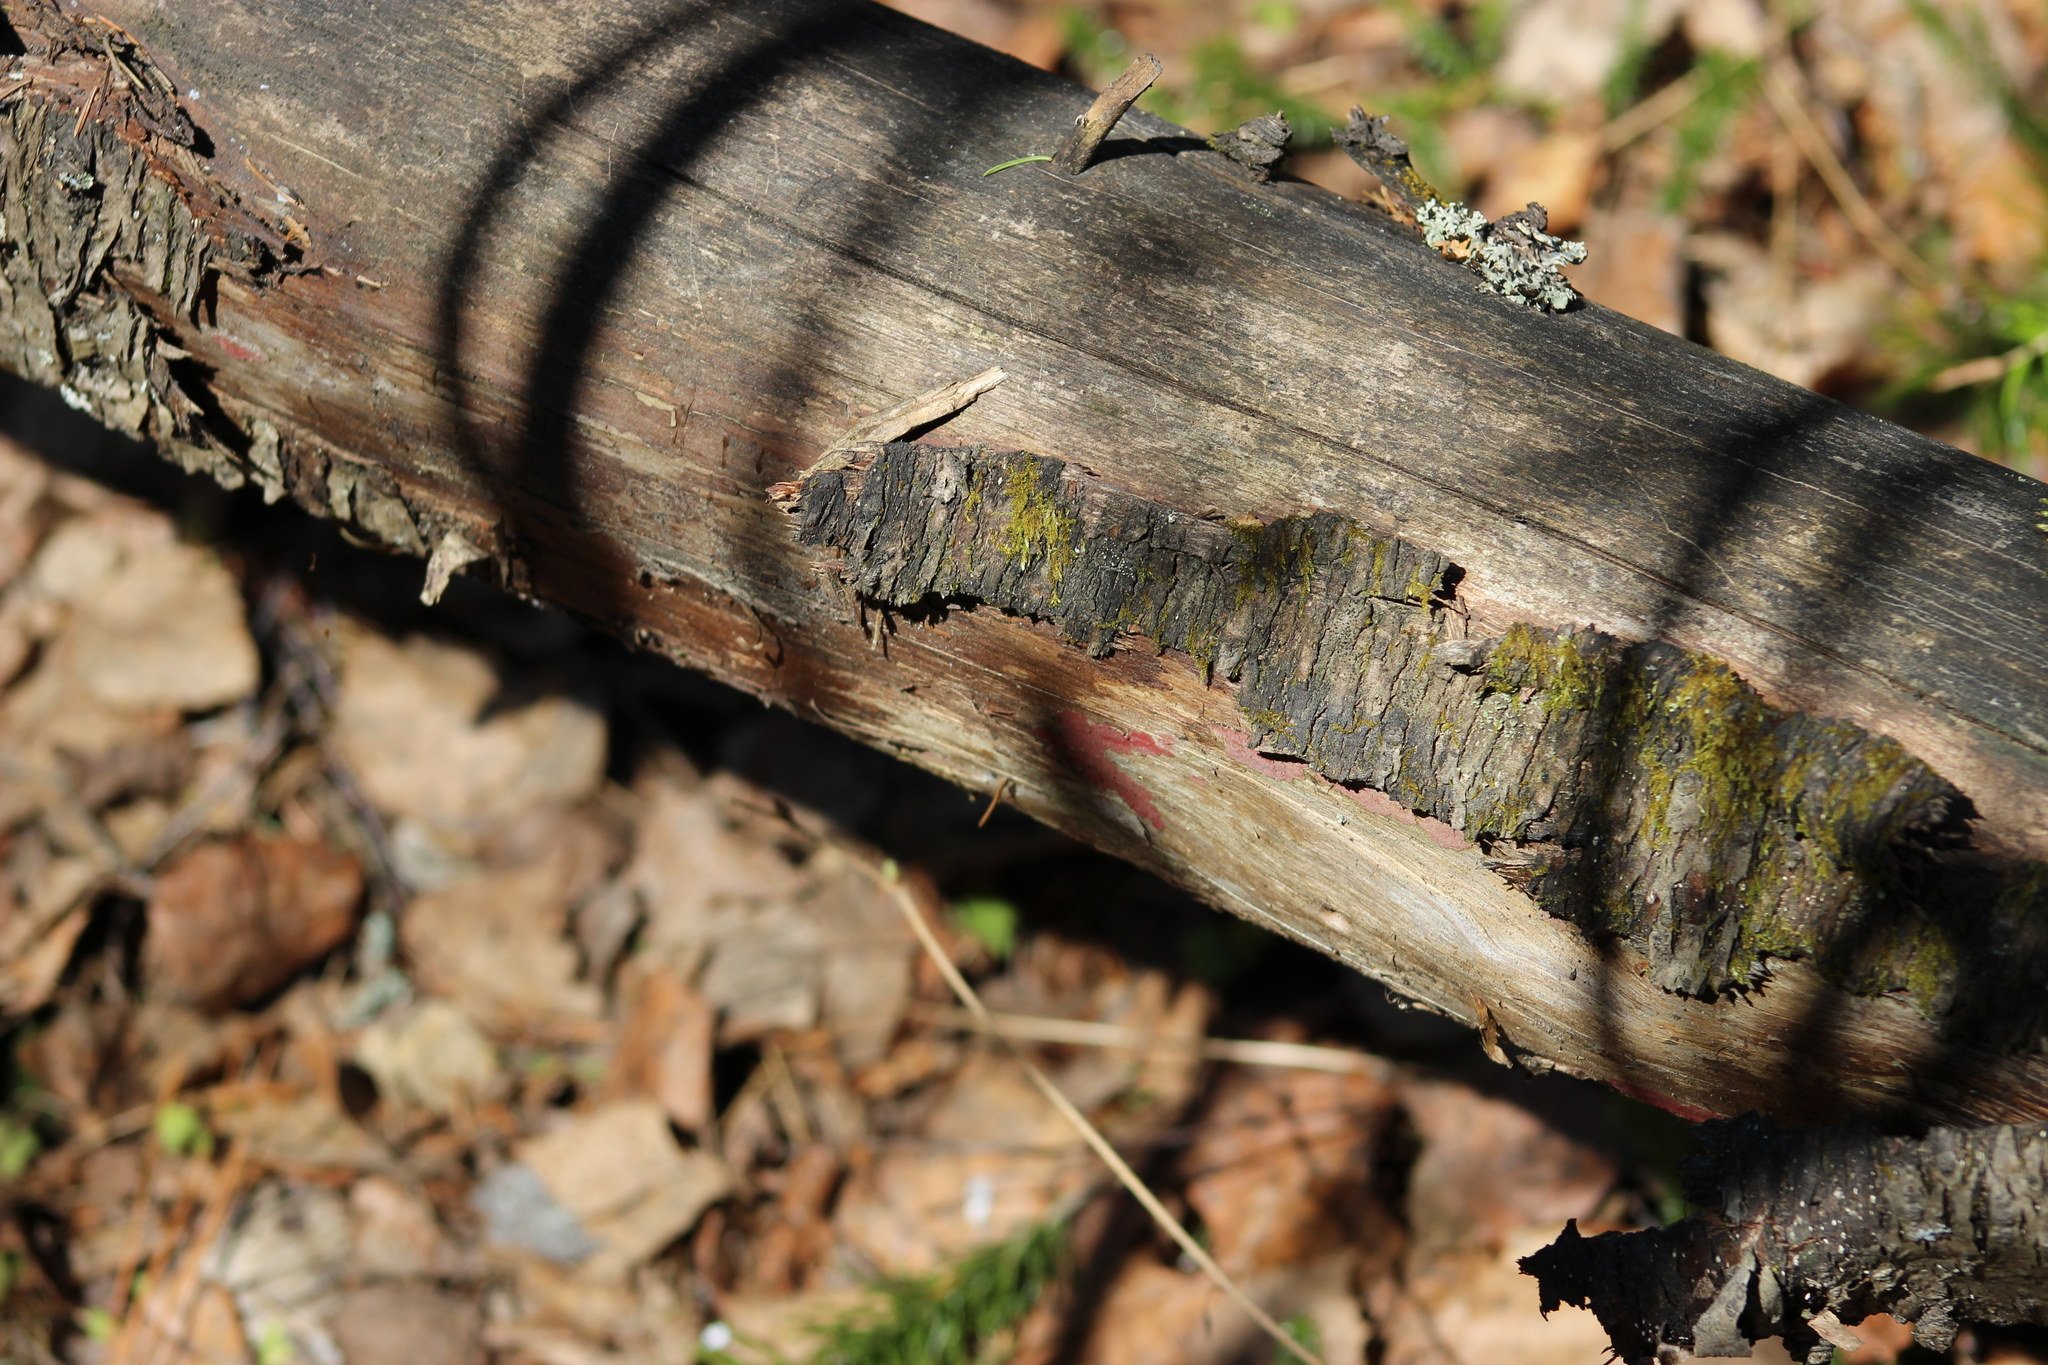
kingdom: Fungi
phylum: Basidiomycota
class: Agaricomycetes
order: Hymenochaetales
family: Hymenochaetaceae
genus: Hymenochaete
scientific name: Hymenochaete cruenta
